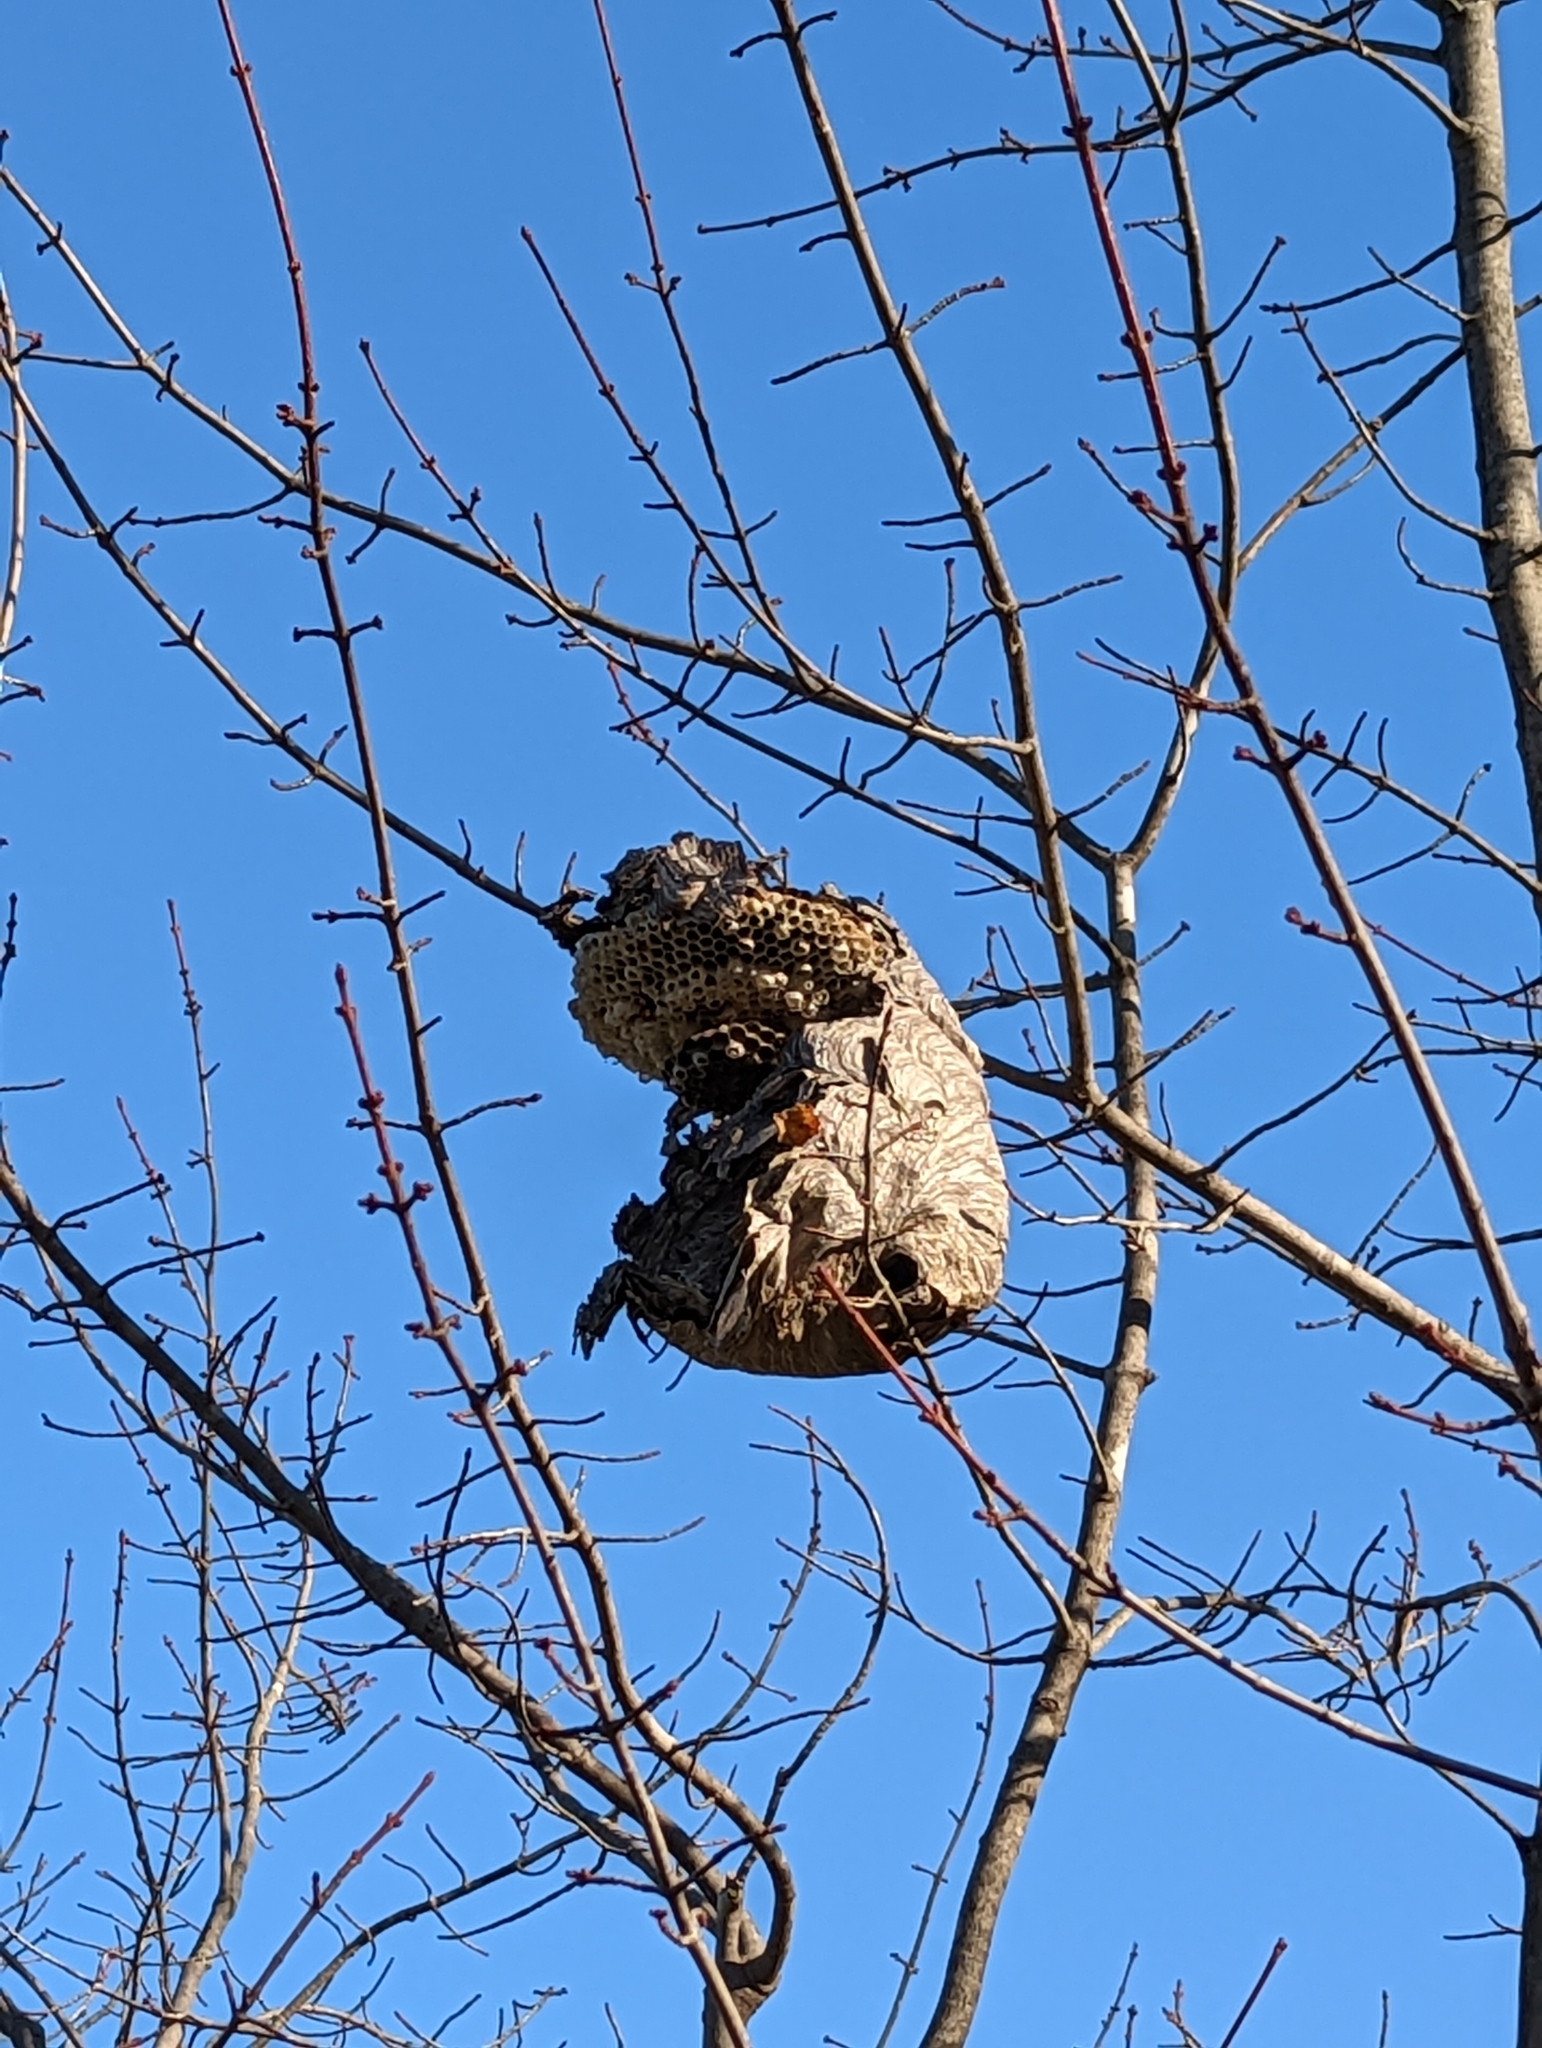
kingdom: Animalia
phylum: Arthropoda
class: Insecta
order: Hymenoptera
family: Vespidae
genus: Dolichovespula
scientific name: Dolichovespula maculata
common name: Bald-faced hornet
